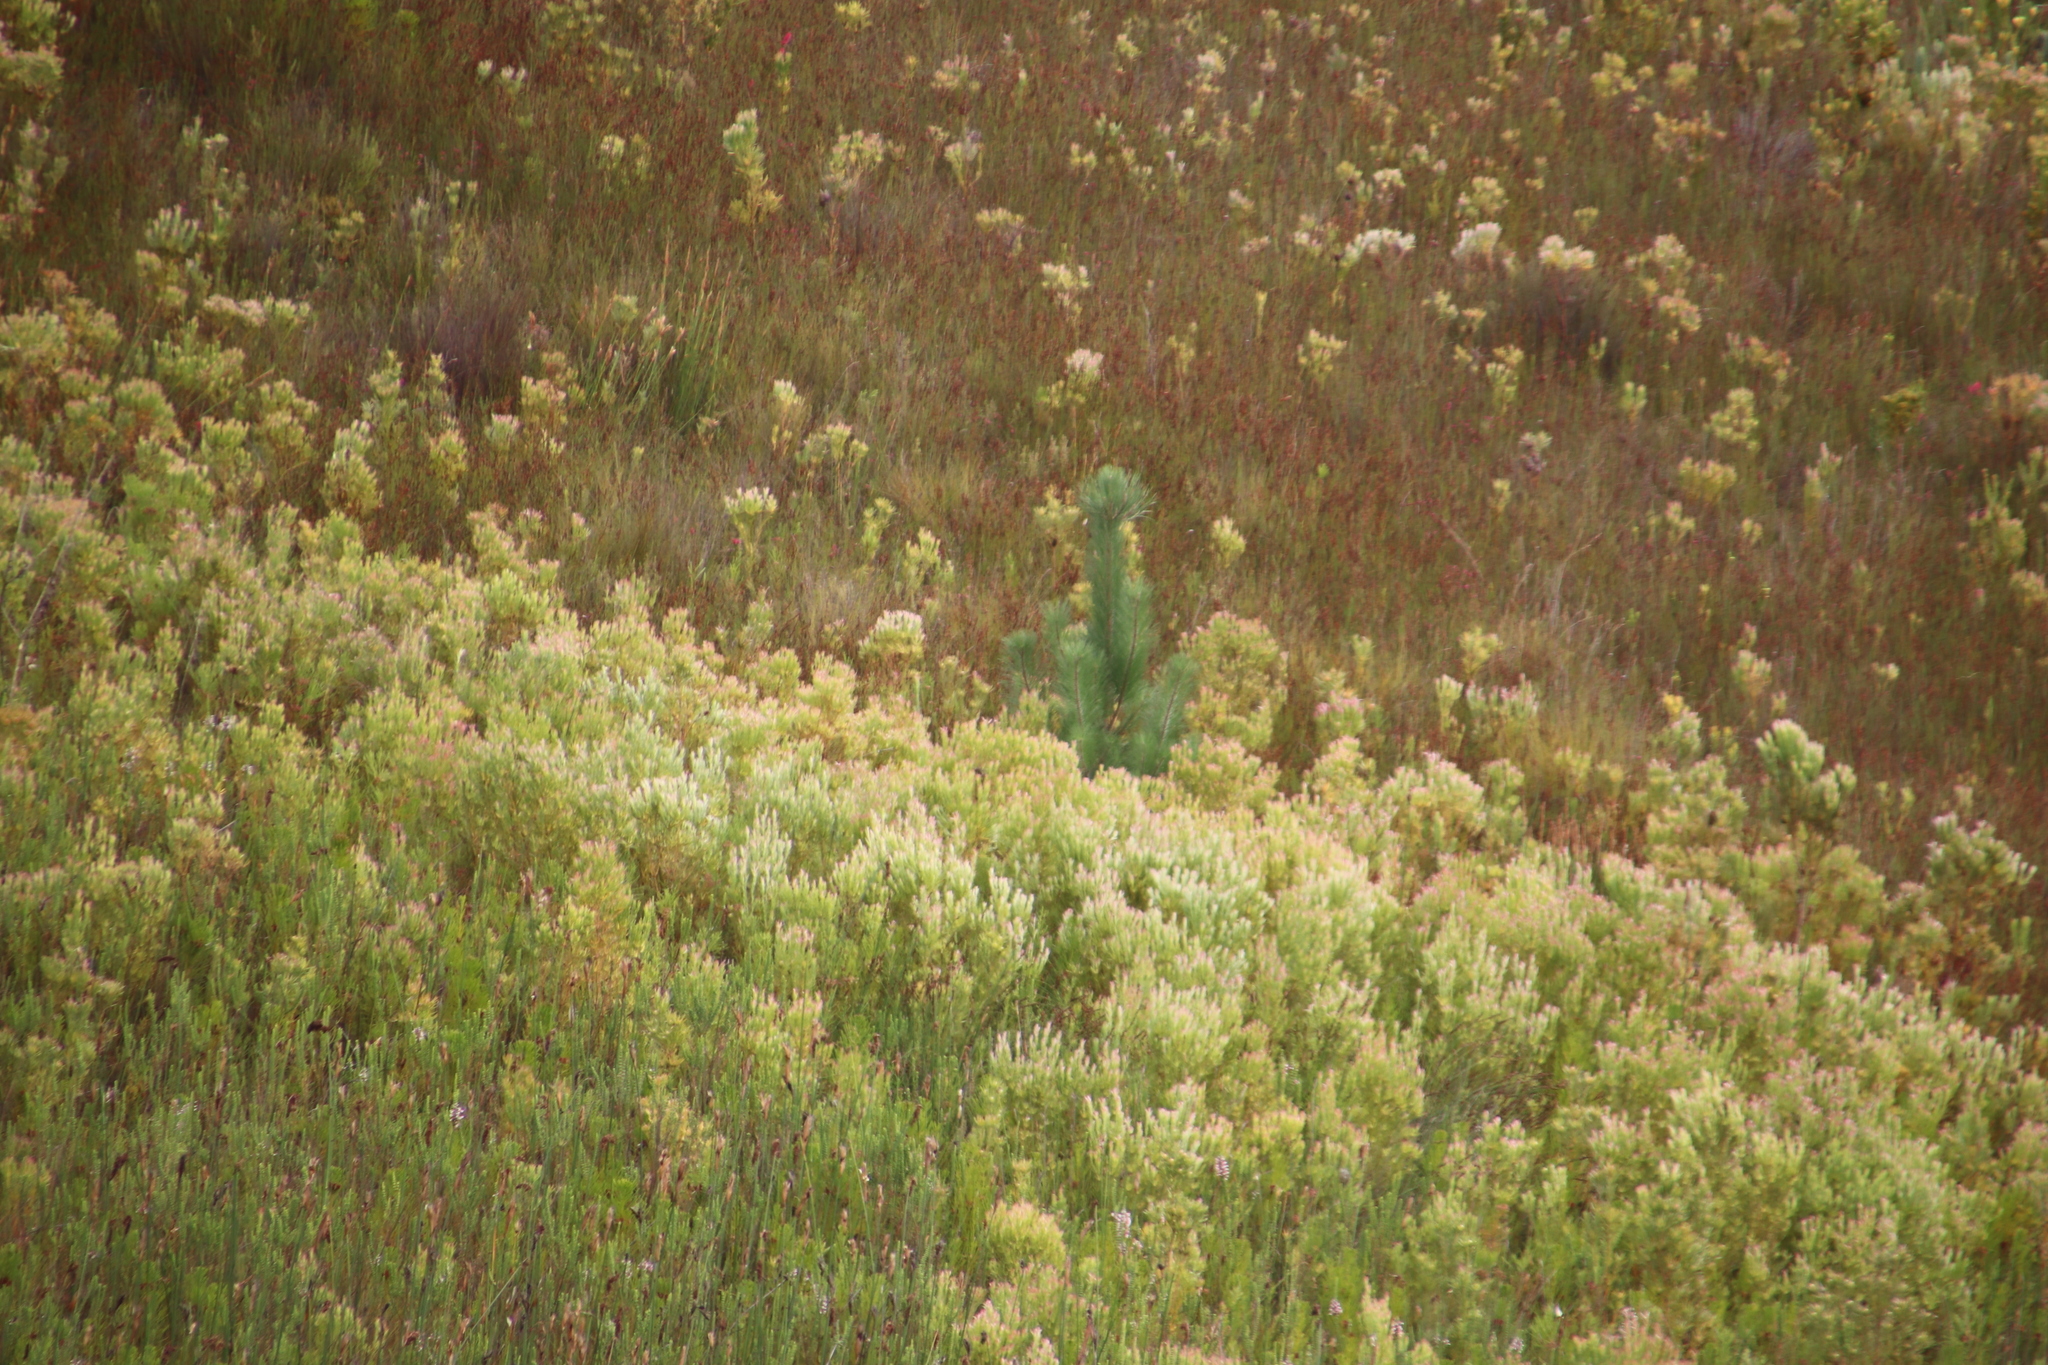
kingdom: Plantae
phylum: Tracheophyta
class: Pinopsida
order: Pinales
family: Pinaceae
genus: Pinus
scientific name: Pinus pinaster
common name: Maritime pine
